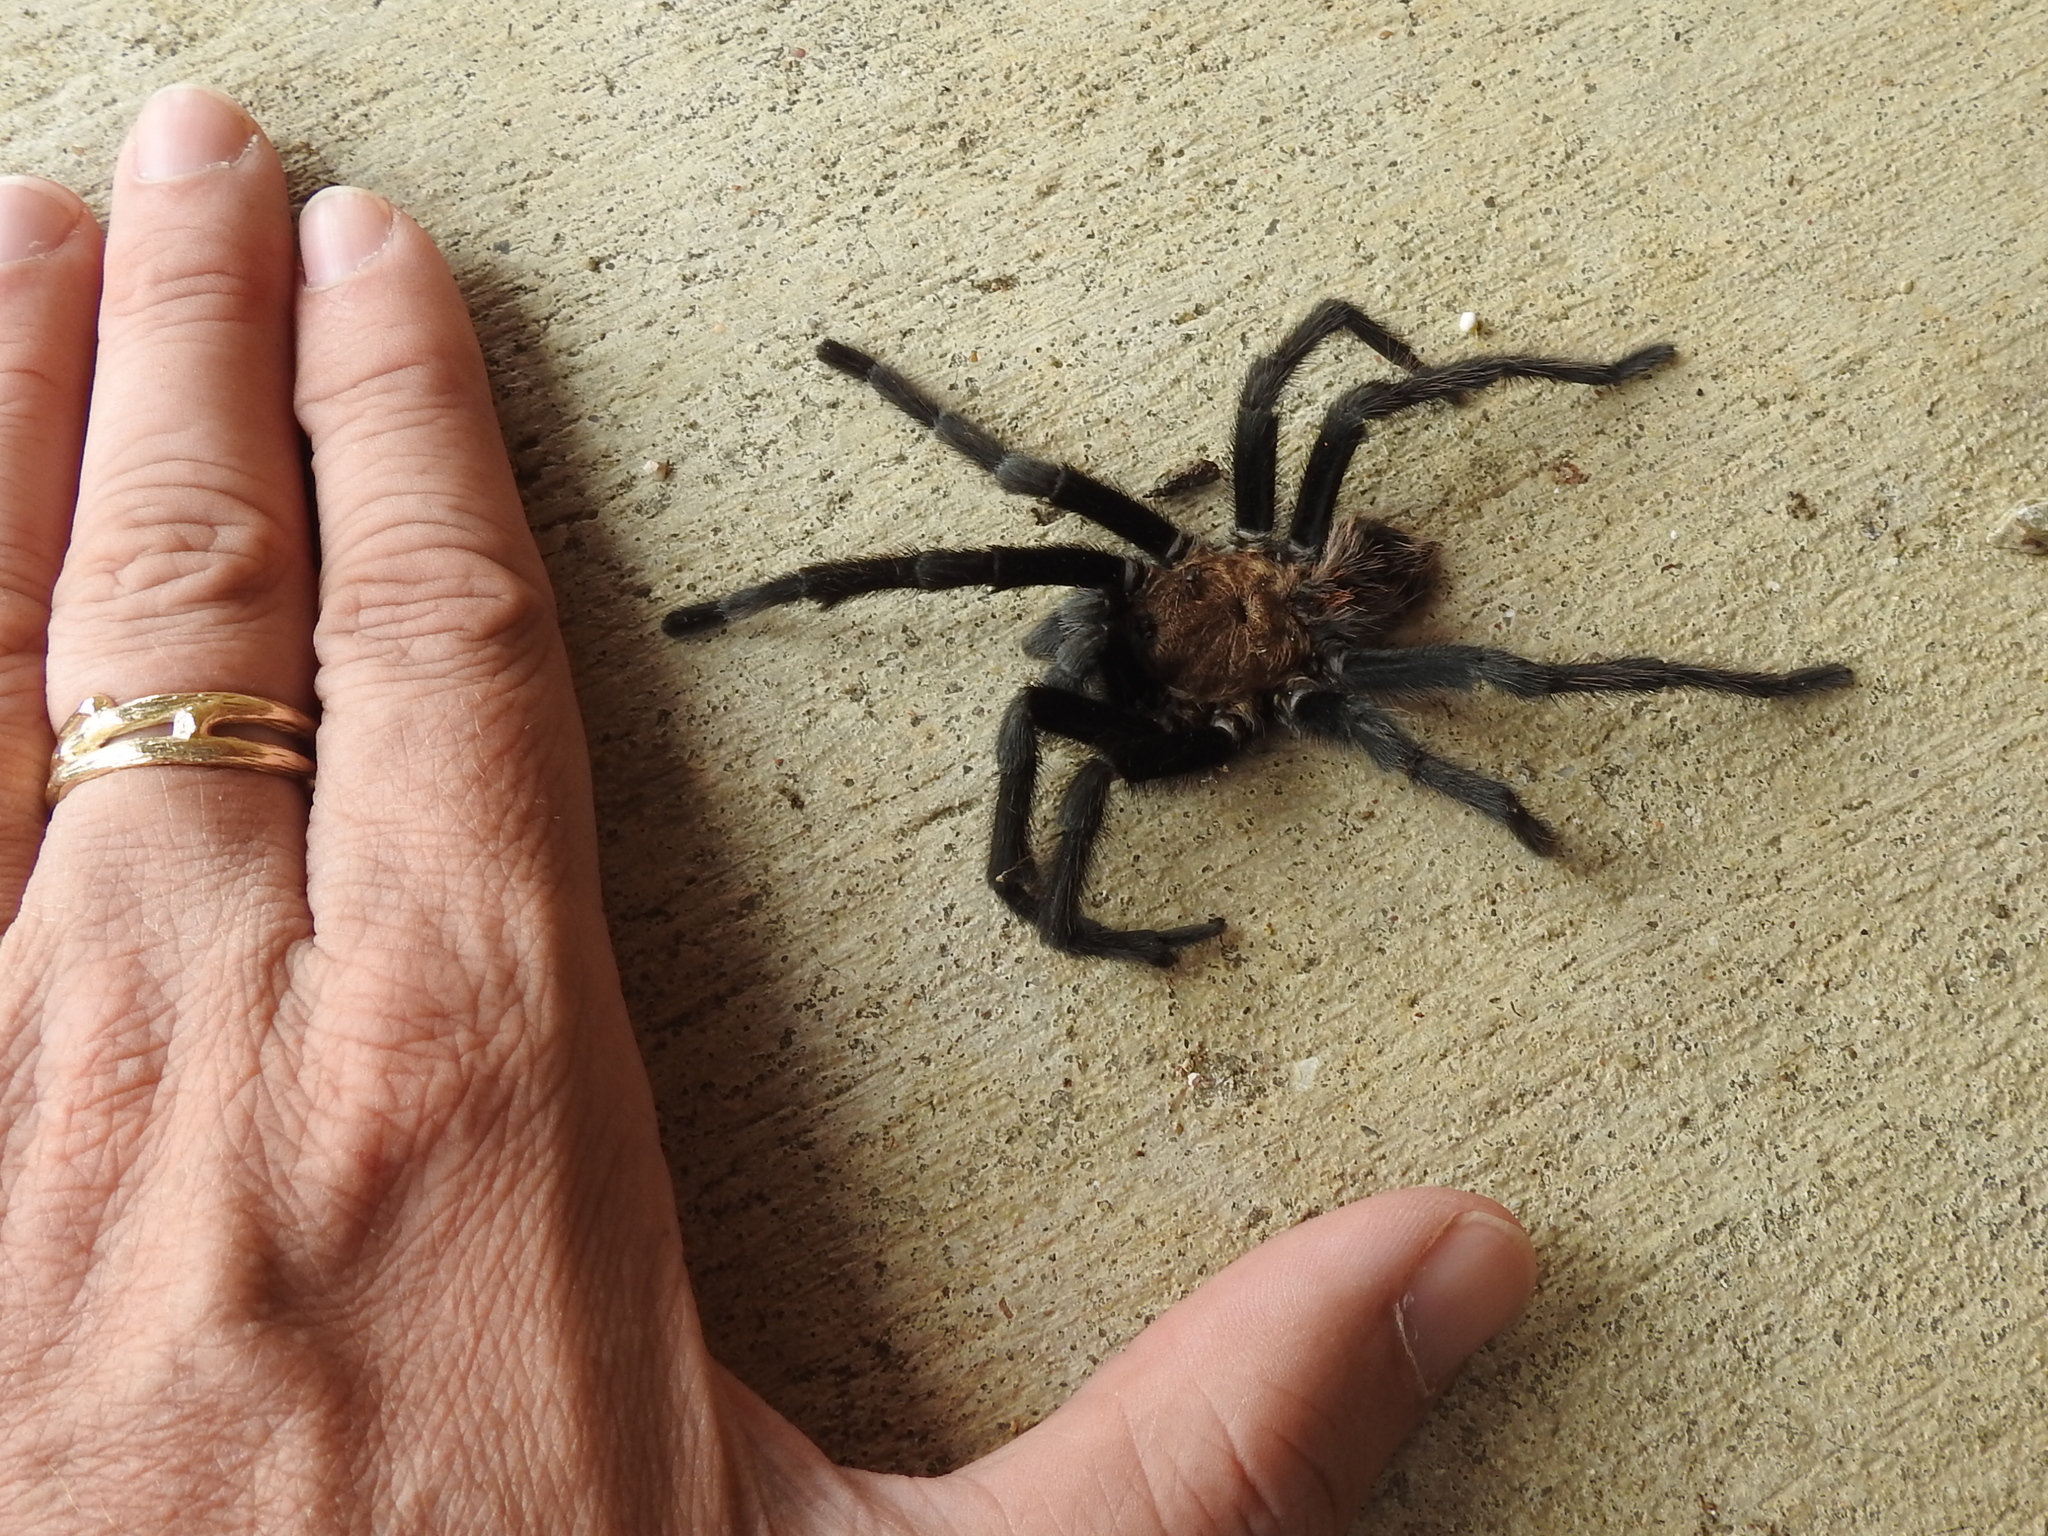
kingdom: Animalia
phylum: Arthropoda
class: Arachnida
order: Araneae
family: Theraphosidae
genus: Aphonopelma
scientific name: Aphonopelma hentzi
